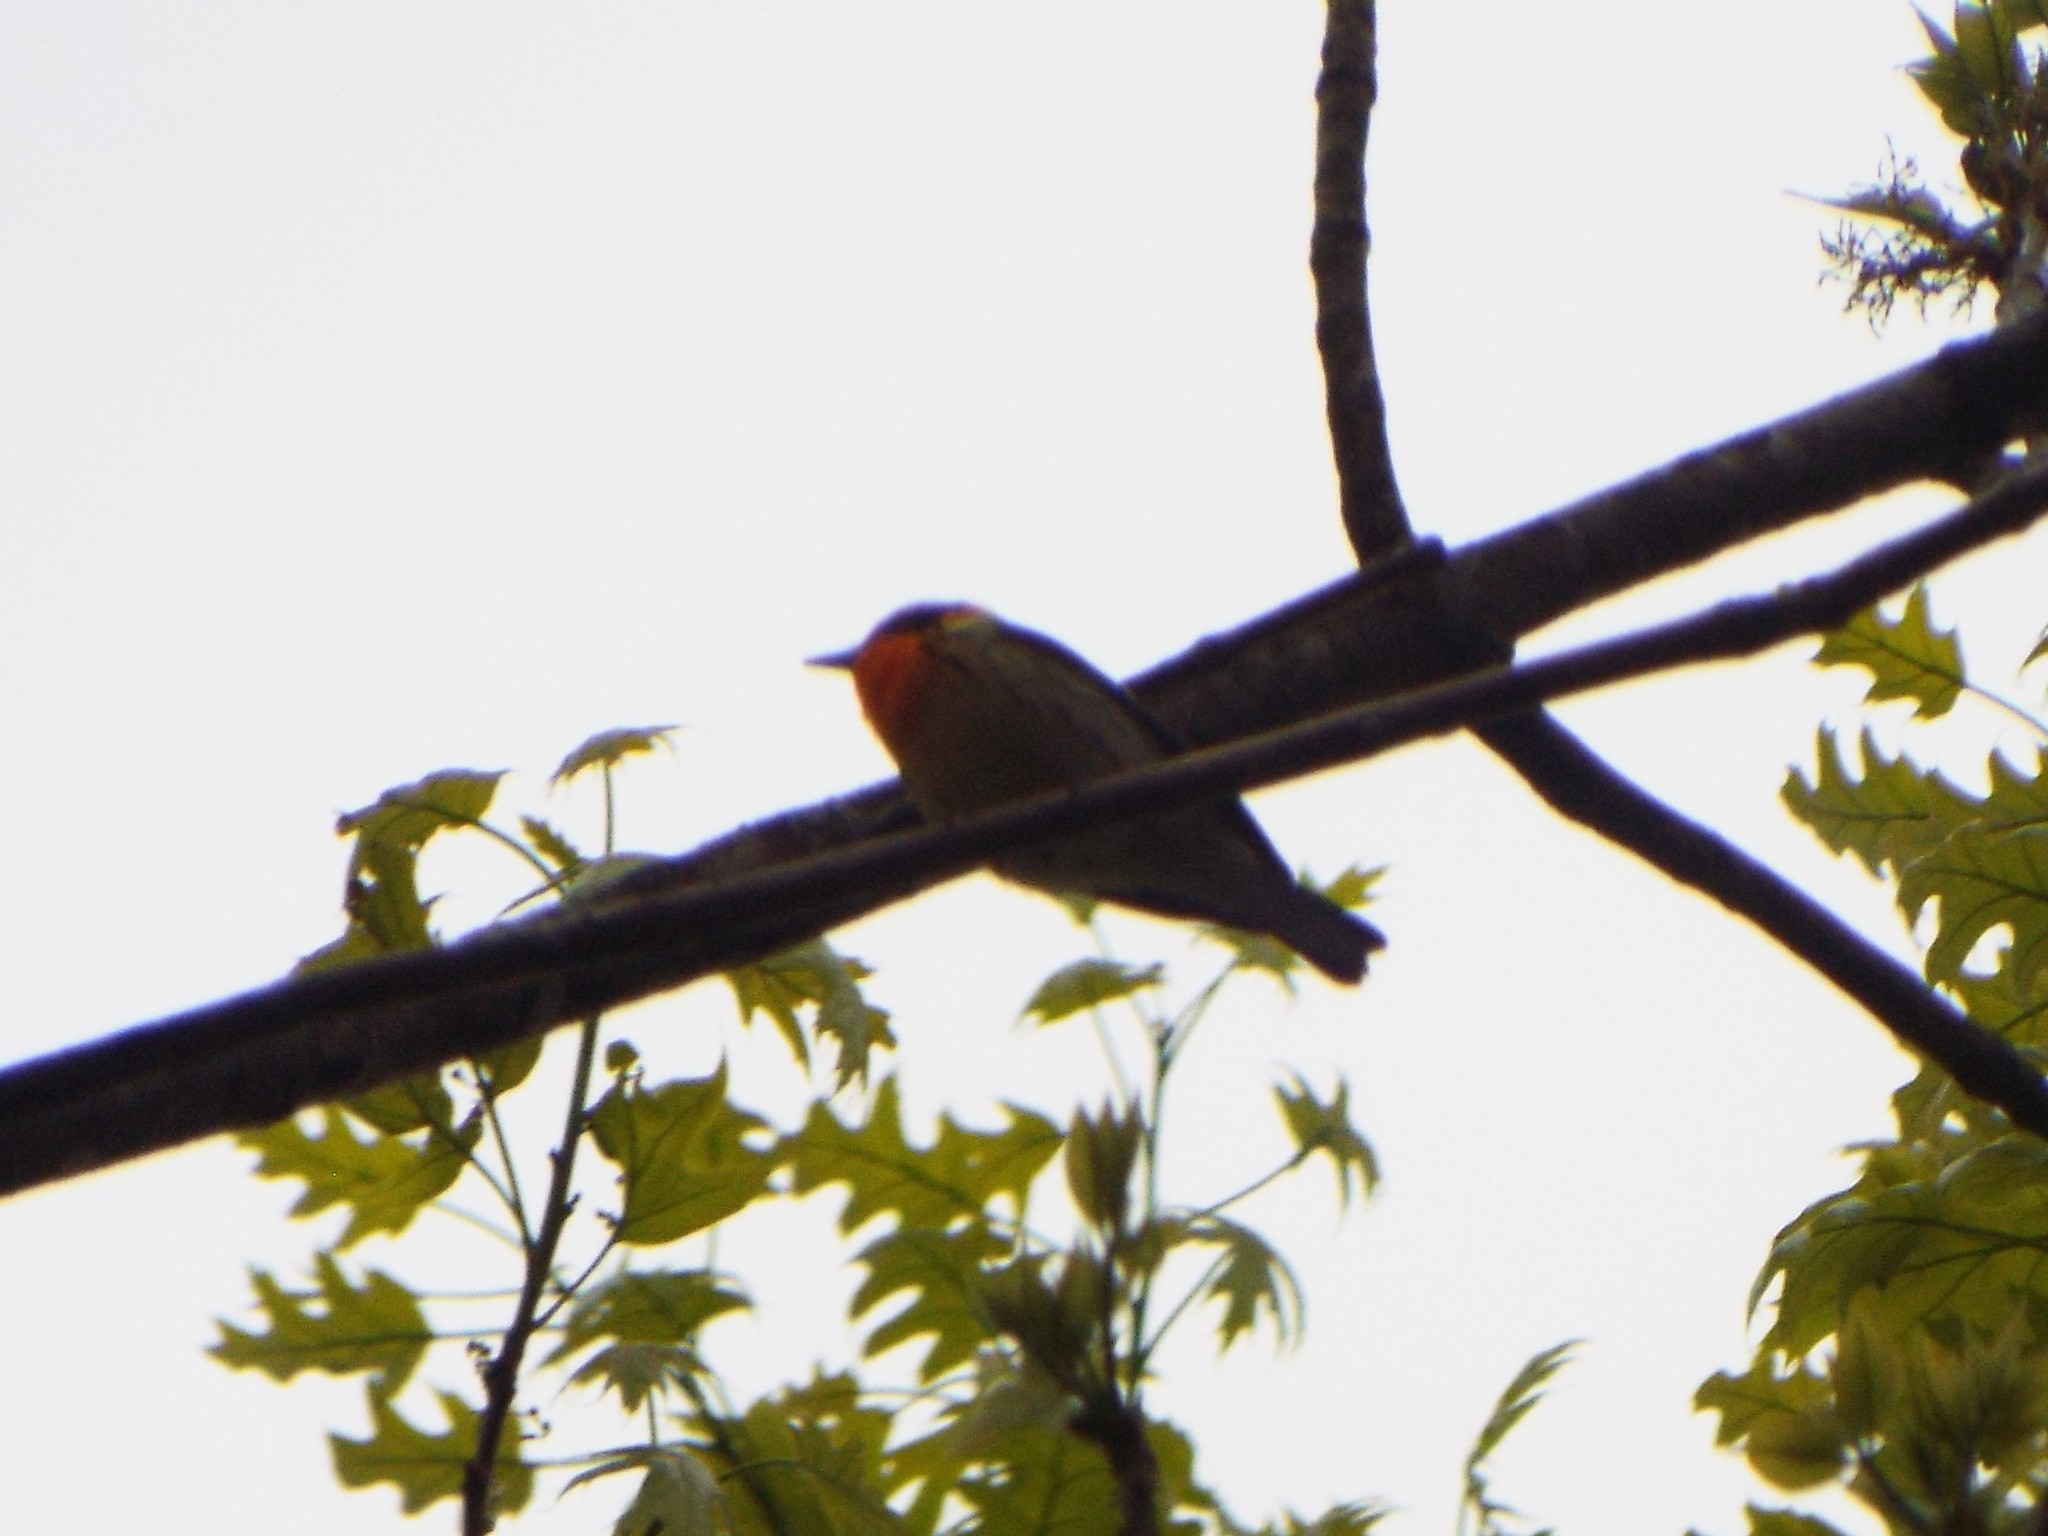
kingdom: Animalia
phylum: Chordata
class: Aves
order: Passeriformes
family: Parulidae
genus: Setophaga
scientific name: Setophaga fusca
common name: Blackburnian warbler
